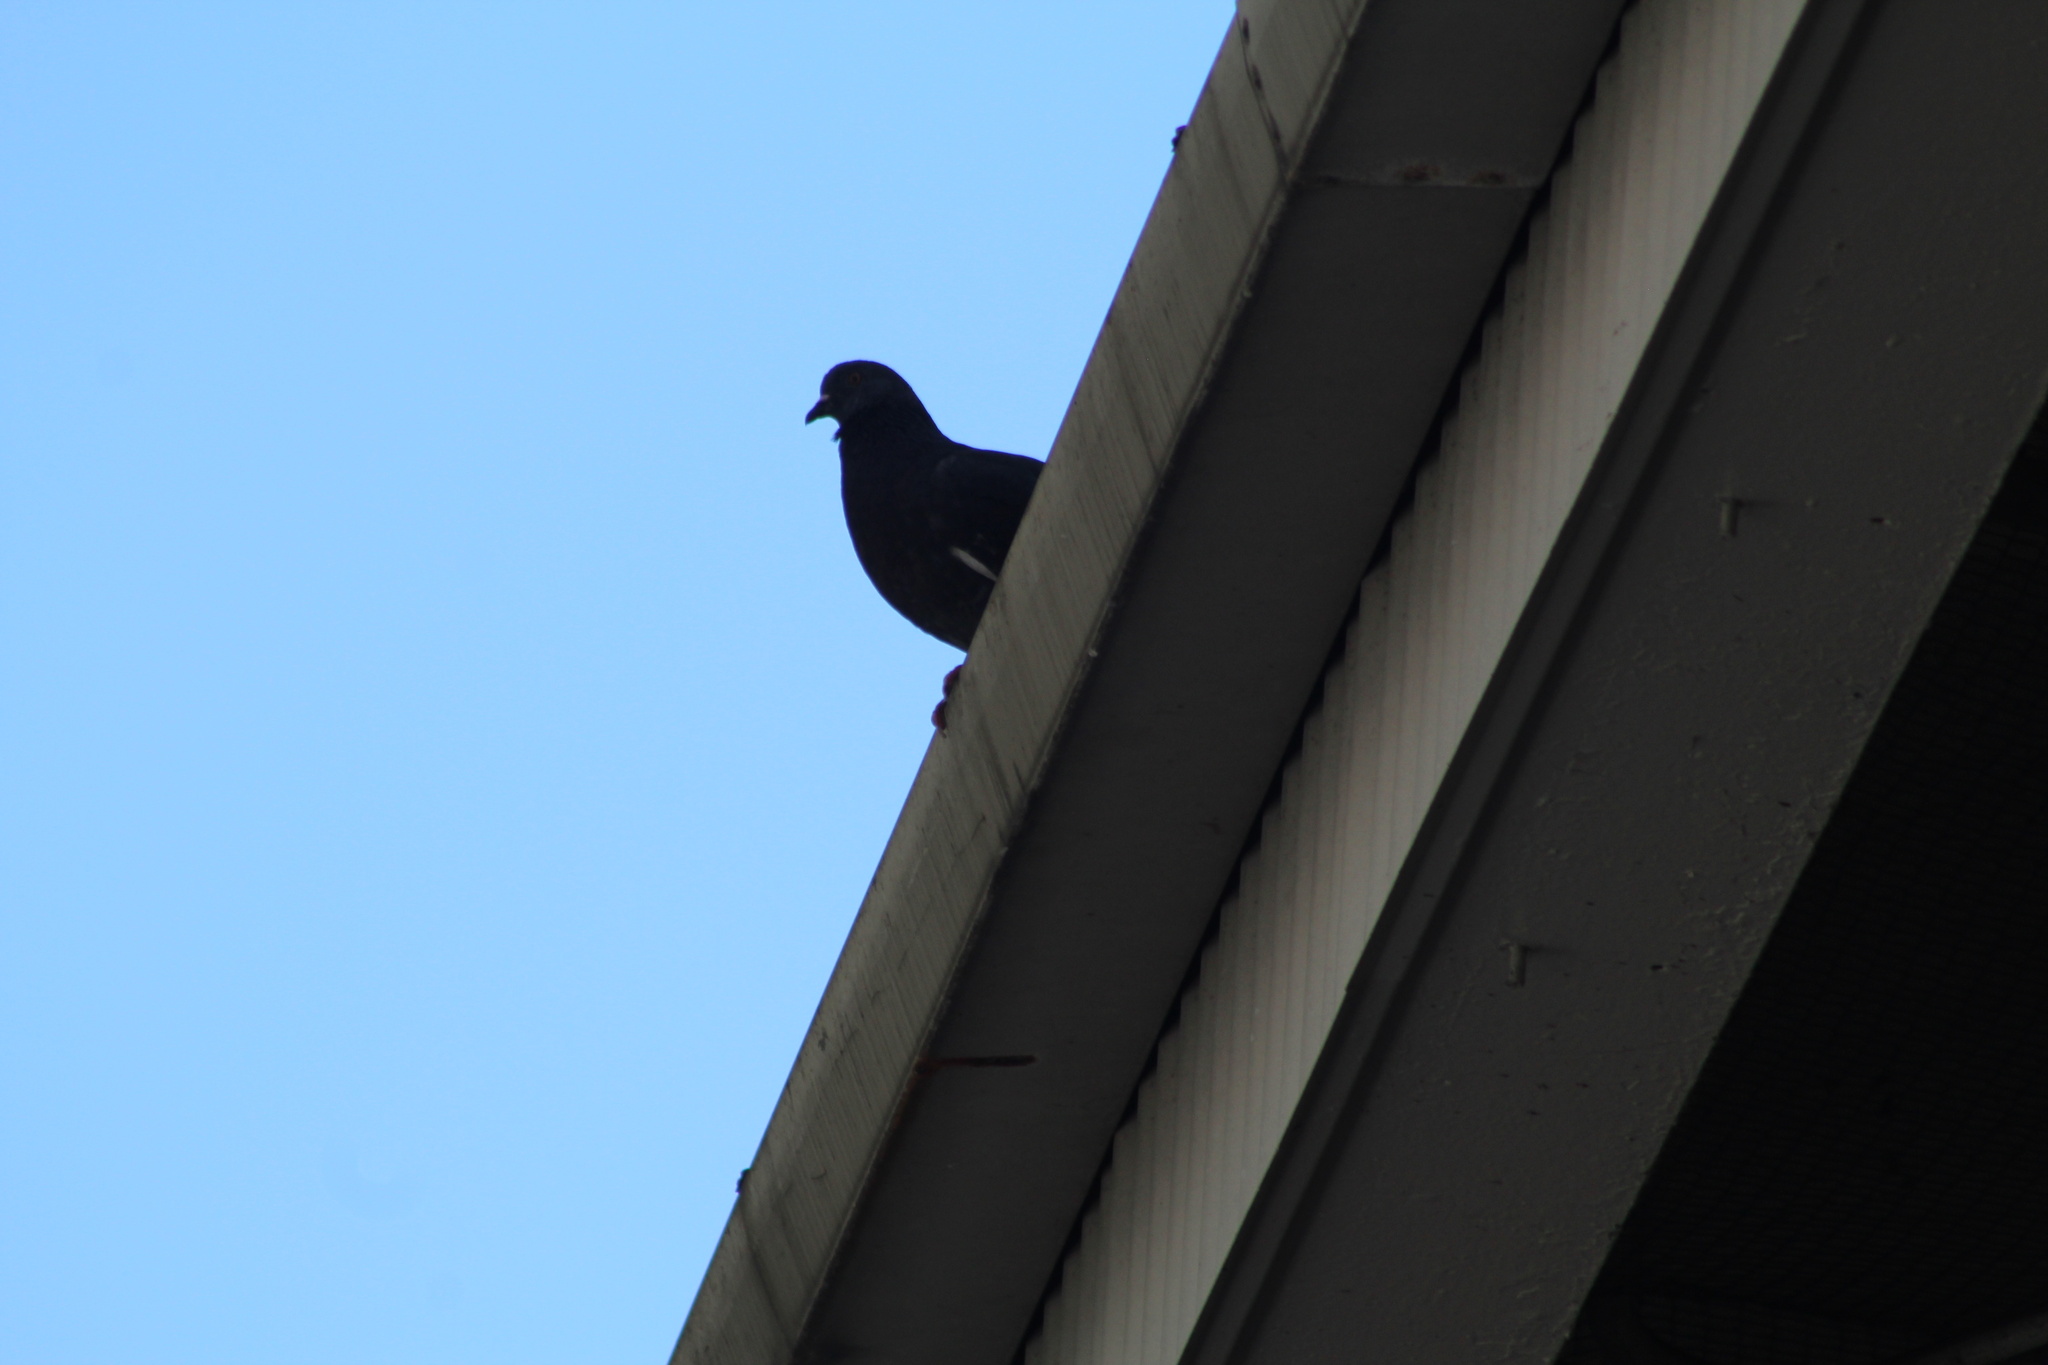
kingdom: Animalia
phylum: Chordata
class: Aves
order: Columbiformes
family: Columbidae
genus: Columba
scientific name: Columba livia
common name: Rock pigeon
